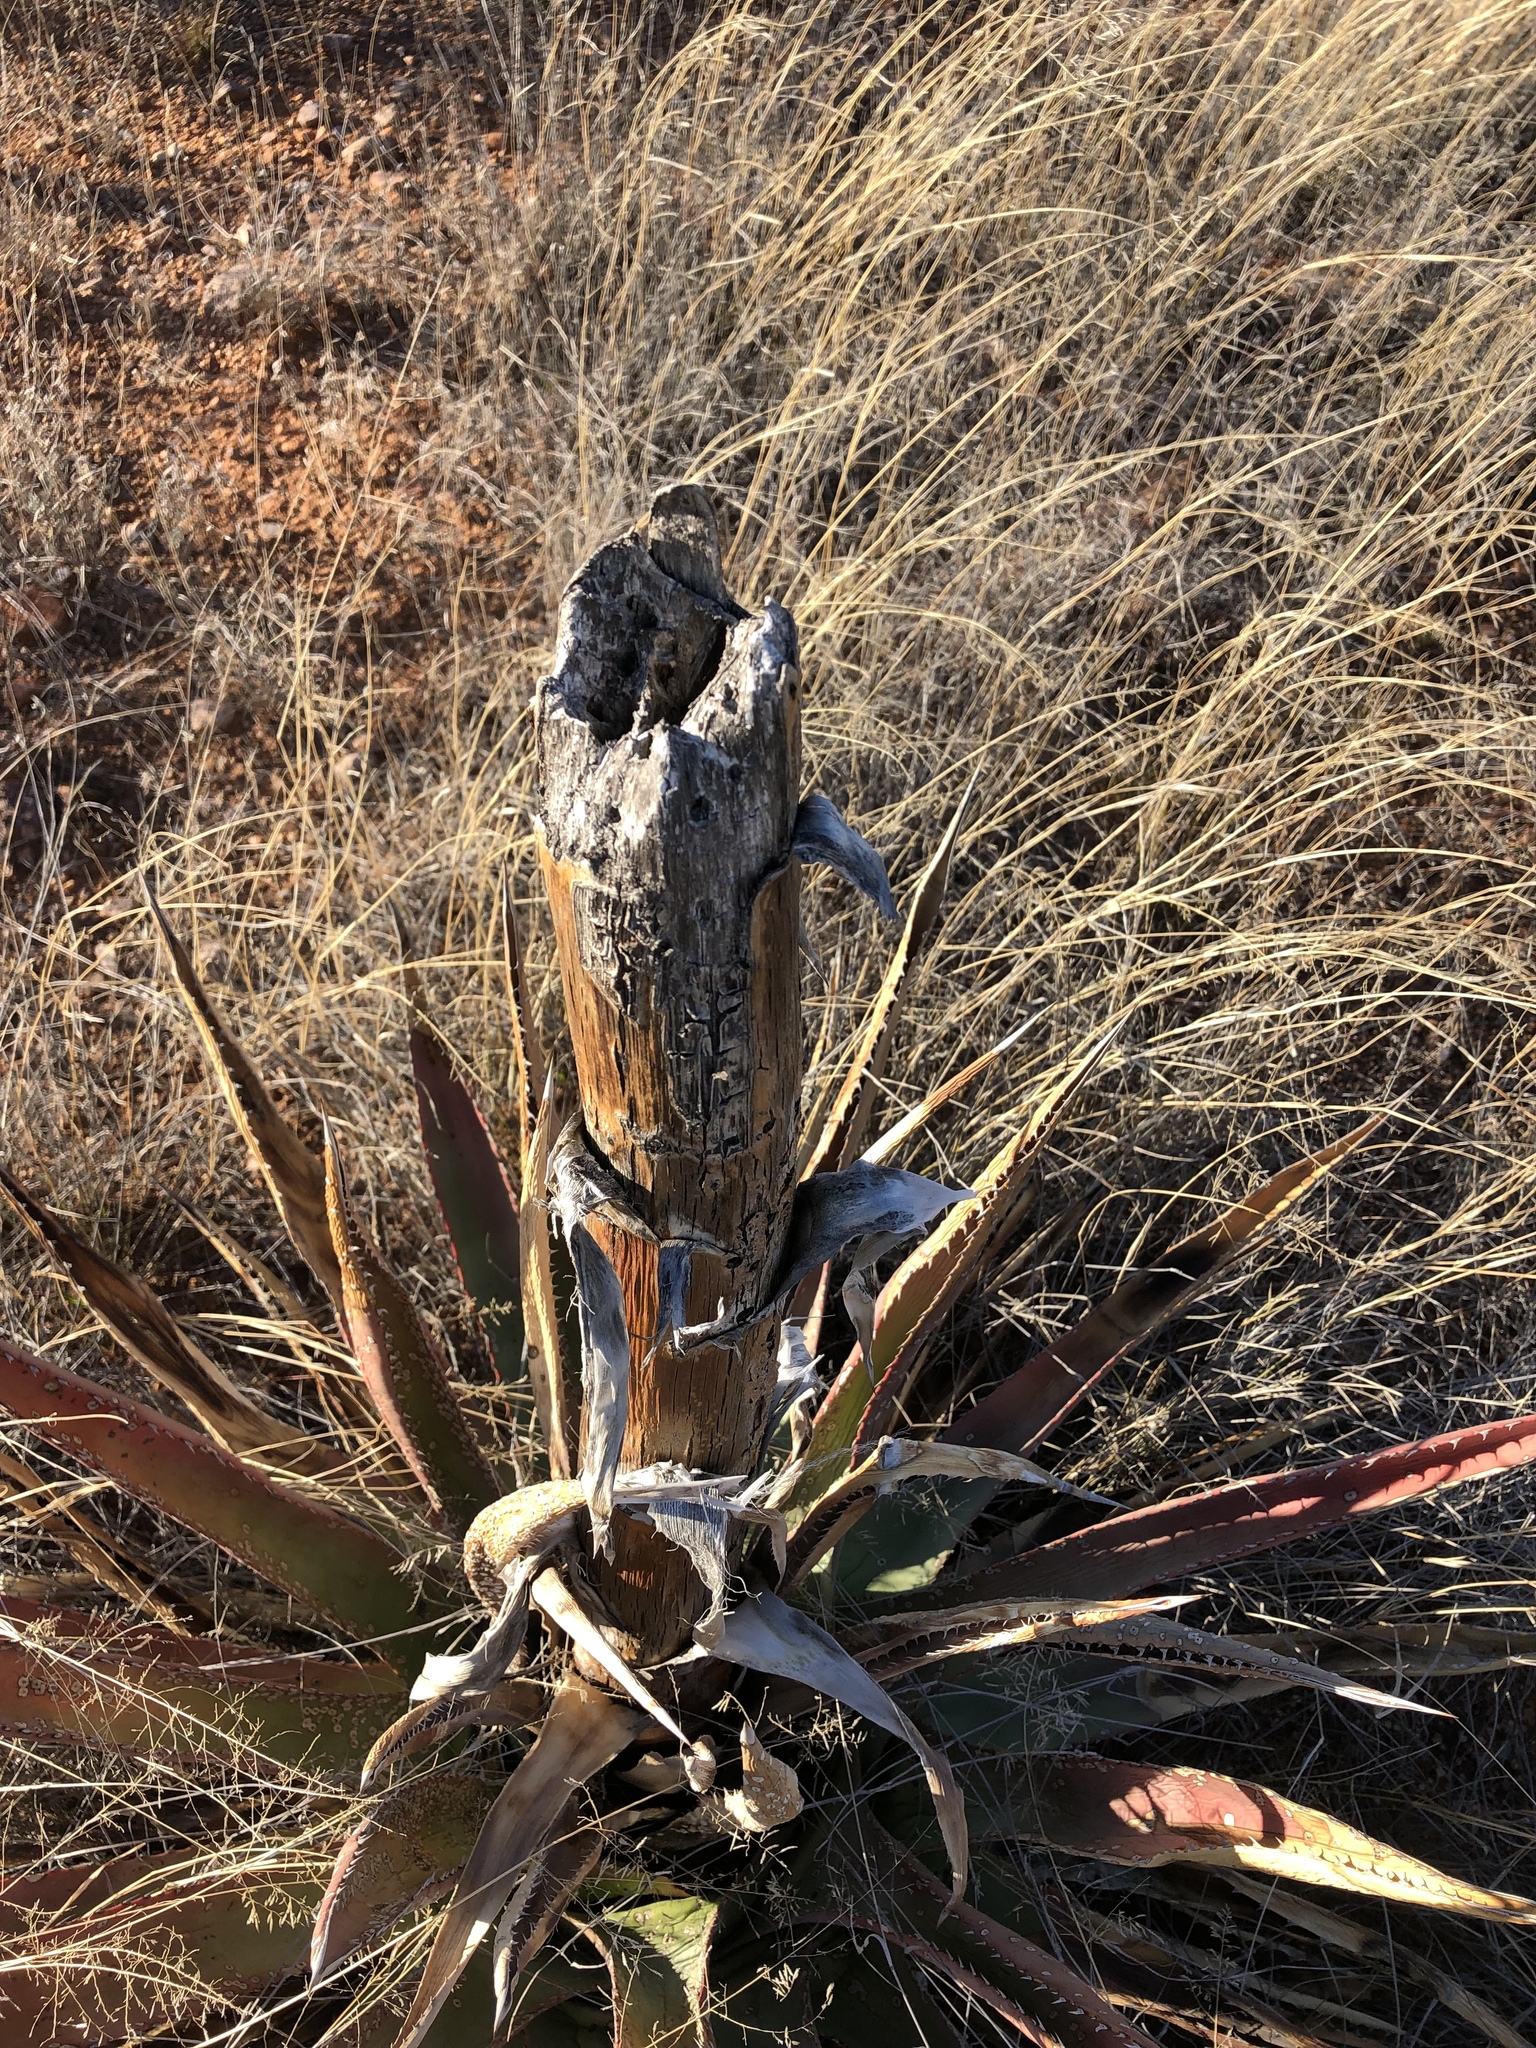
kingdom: Plantae
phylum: Tracheophyta
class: Liliopsida
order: Asparagales
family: Asparagaceae
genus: Agave
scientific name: Agave palmeri
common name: Palmer agave
